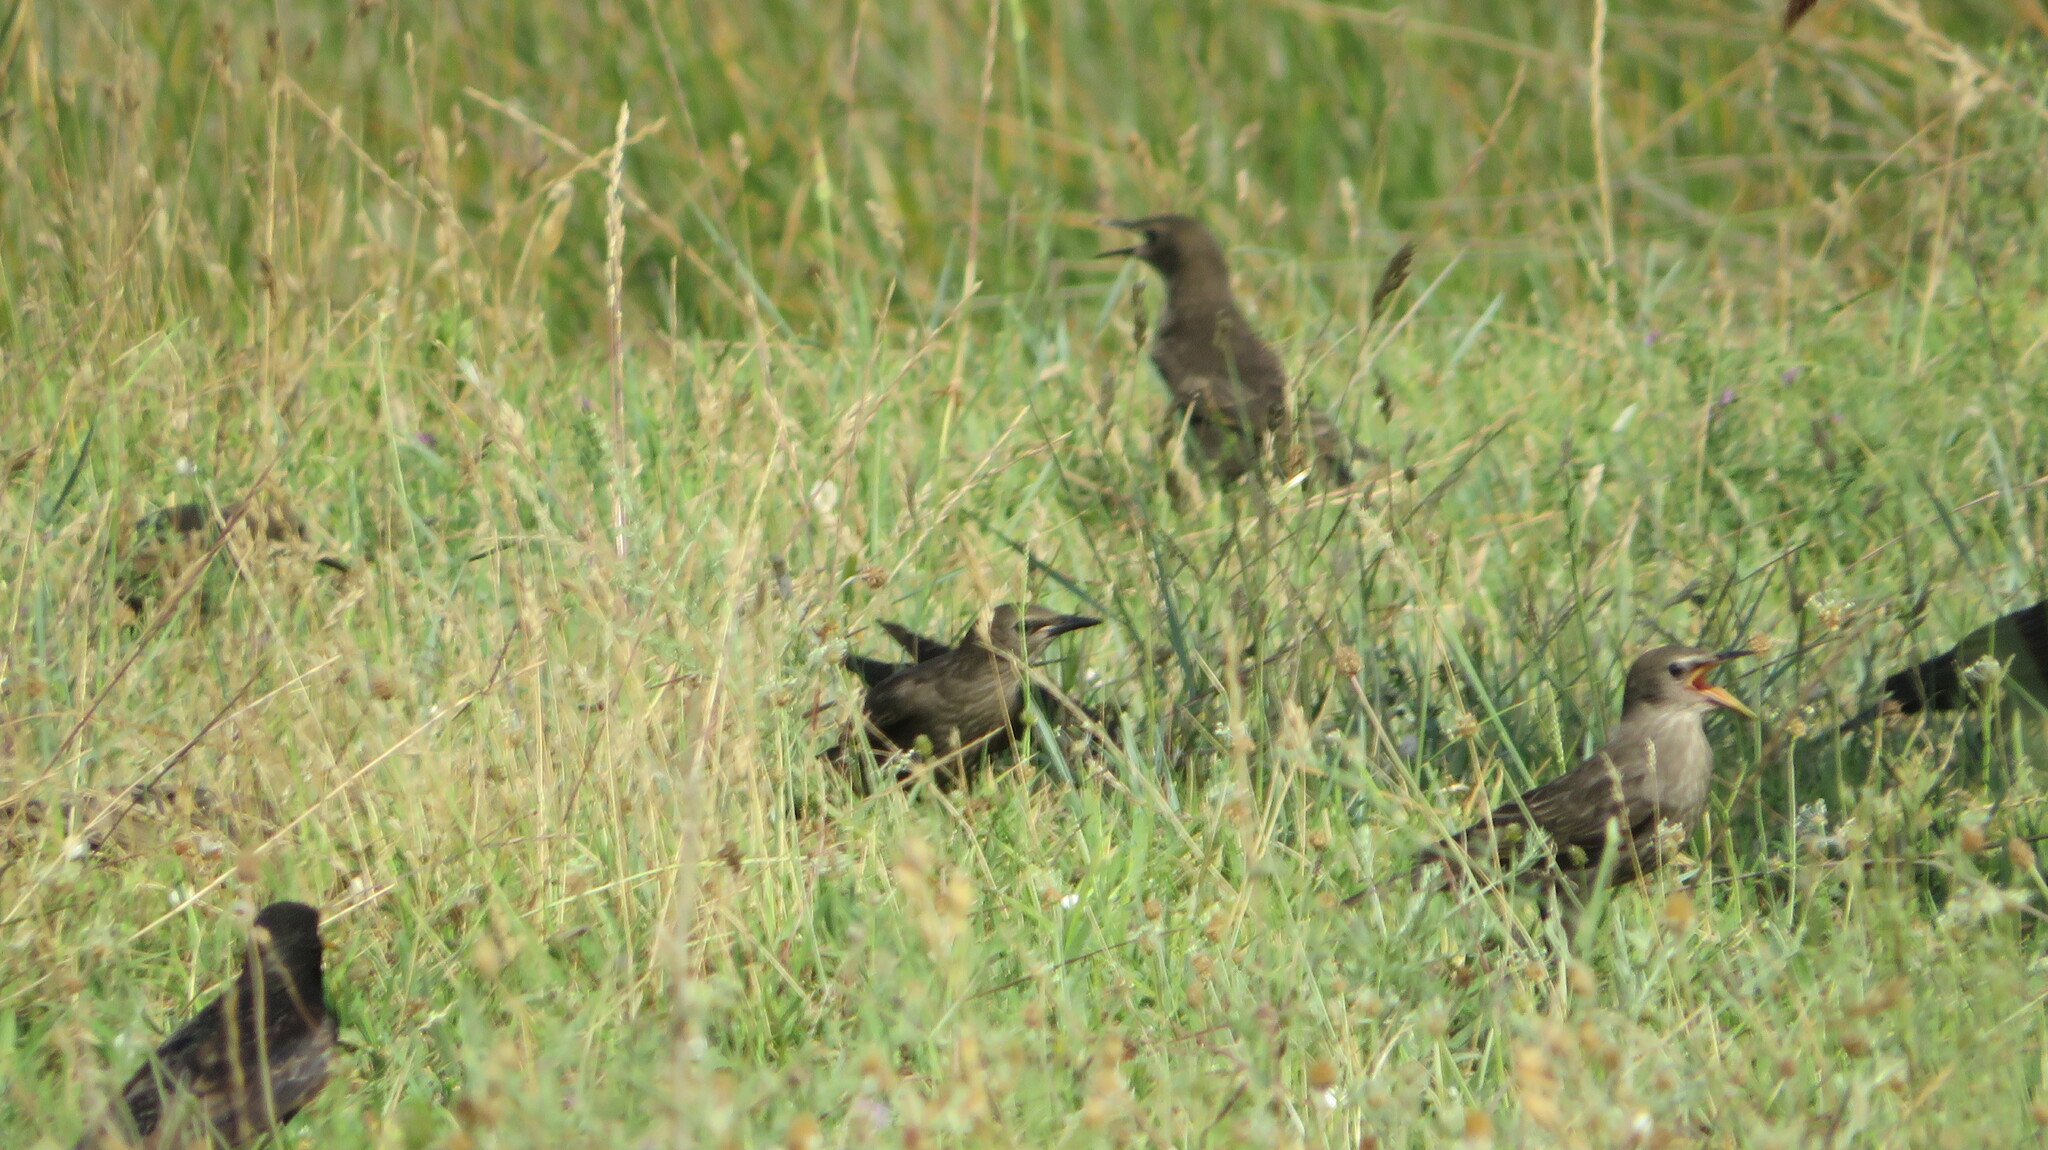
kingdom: Animalia
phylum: Chordata
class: Aves
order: Passeriformes
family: Sturnidae
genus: Sturnus
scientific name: Sturnus vulgaris
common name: Common starling
